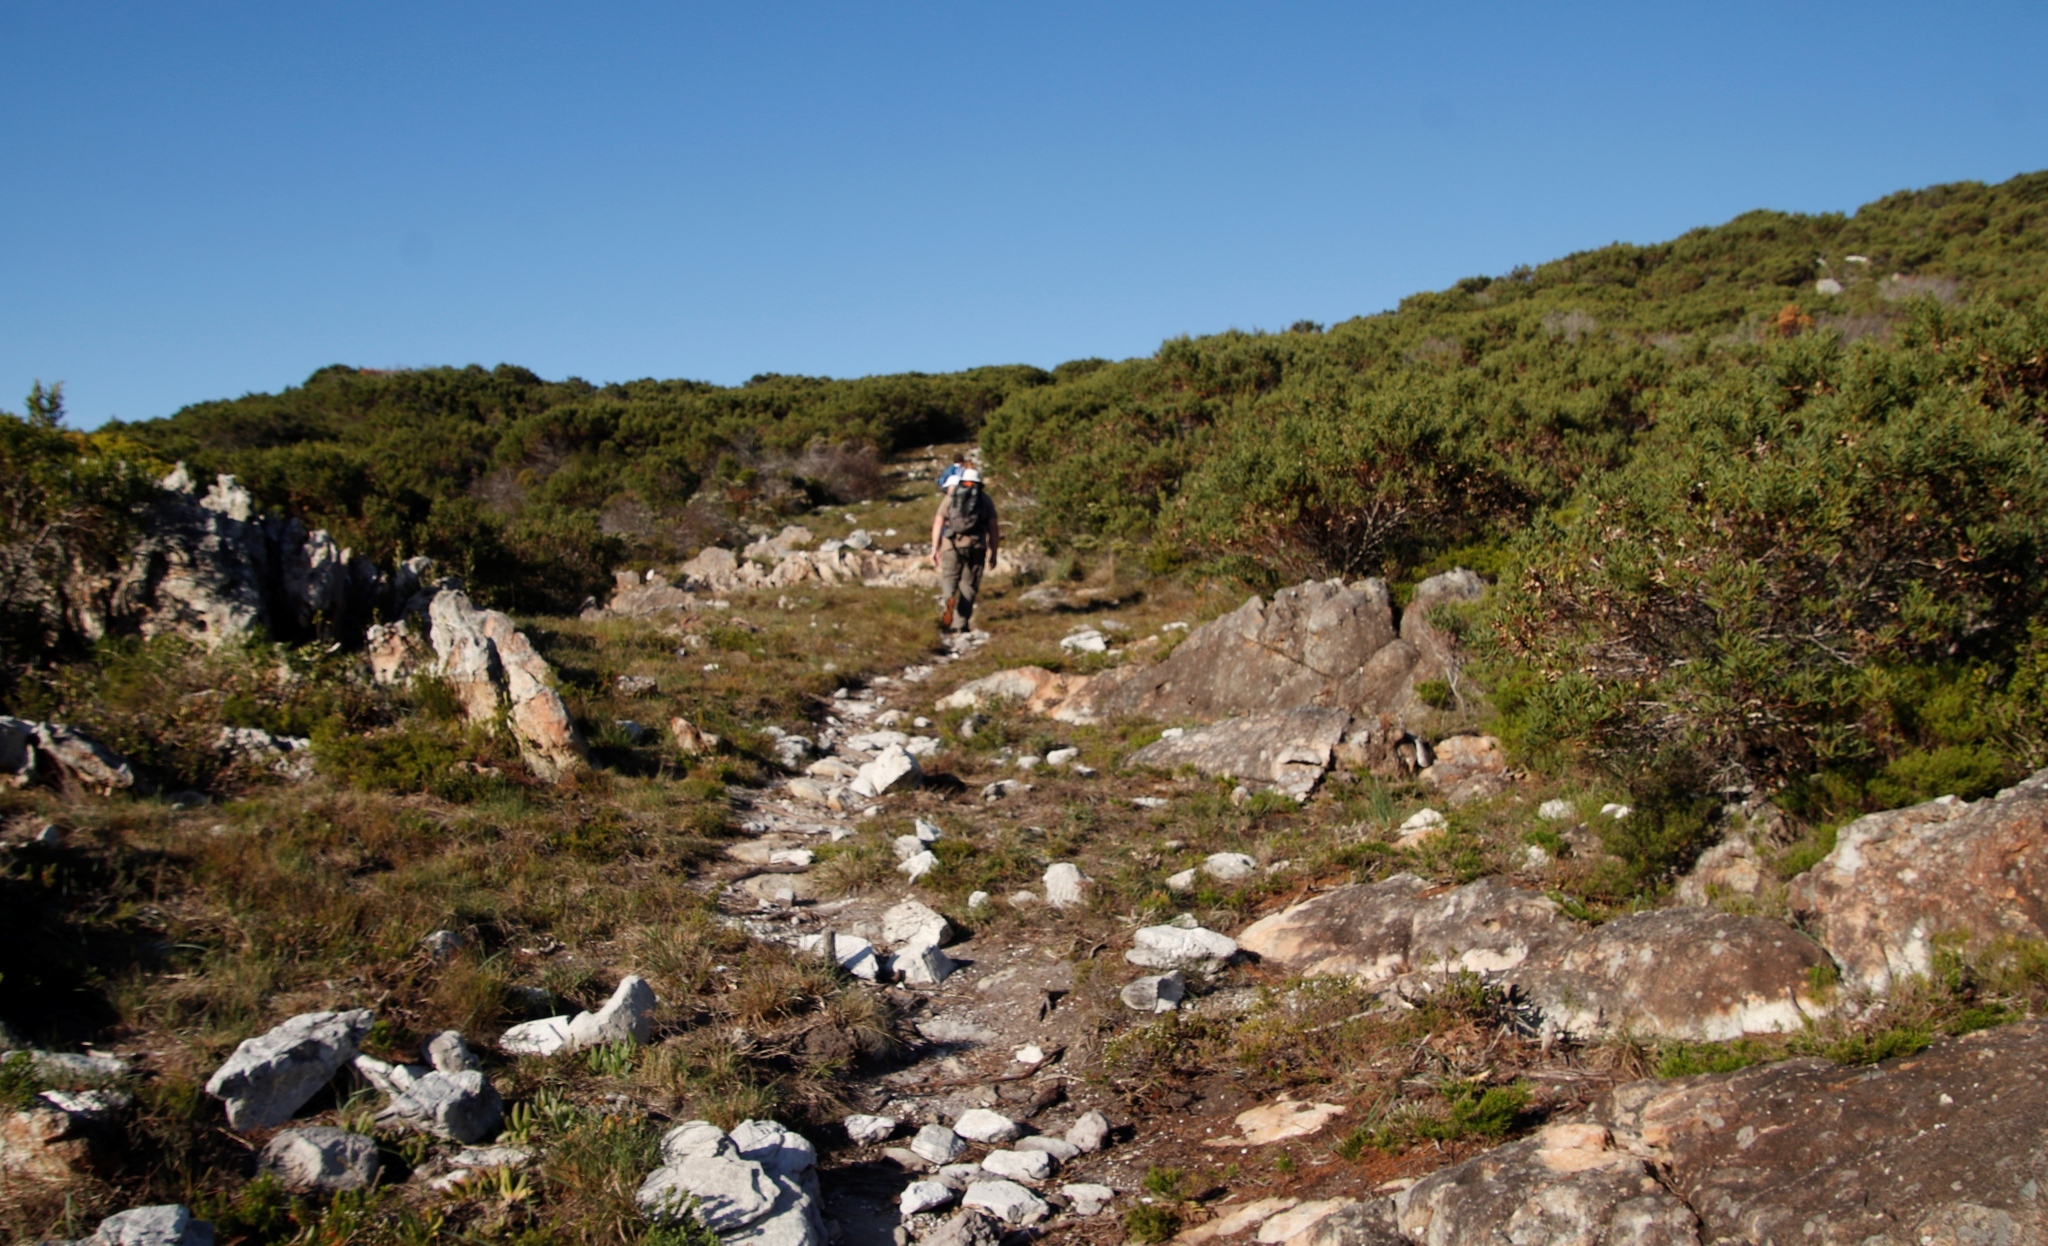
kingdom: Plantae
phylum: Tracheophyta
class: Magnoliopsida
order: Fabales
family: Fabaceae
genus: Acacia
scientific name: Acacia cyclops
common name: Coastal wattle
